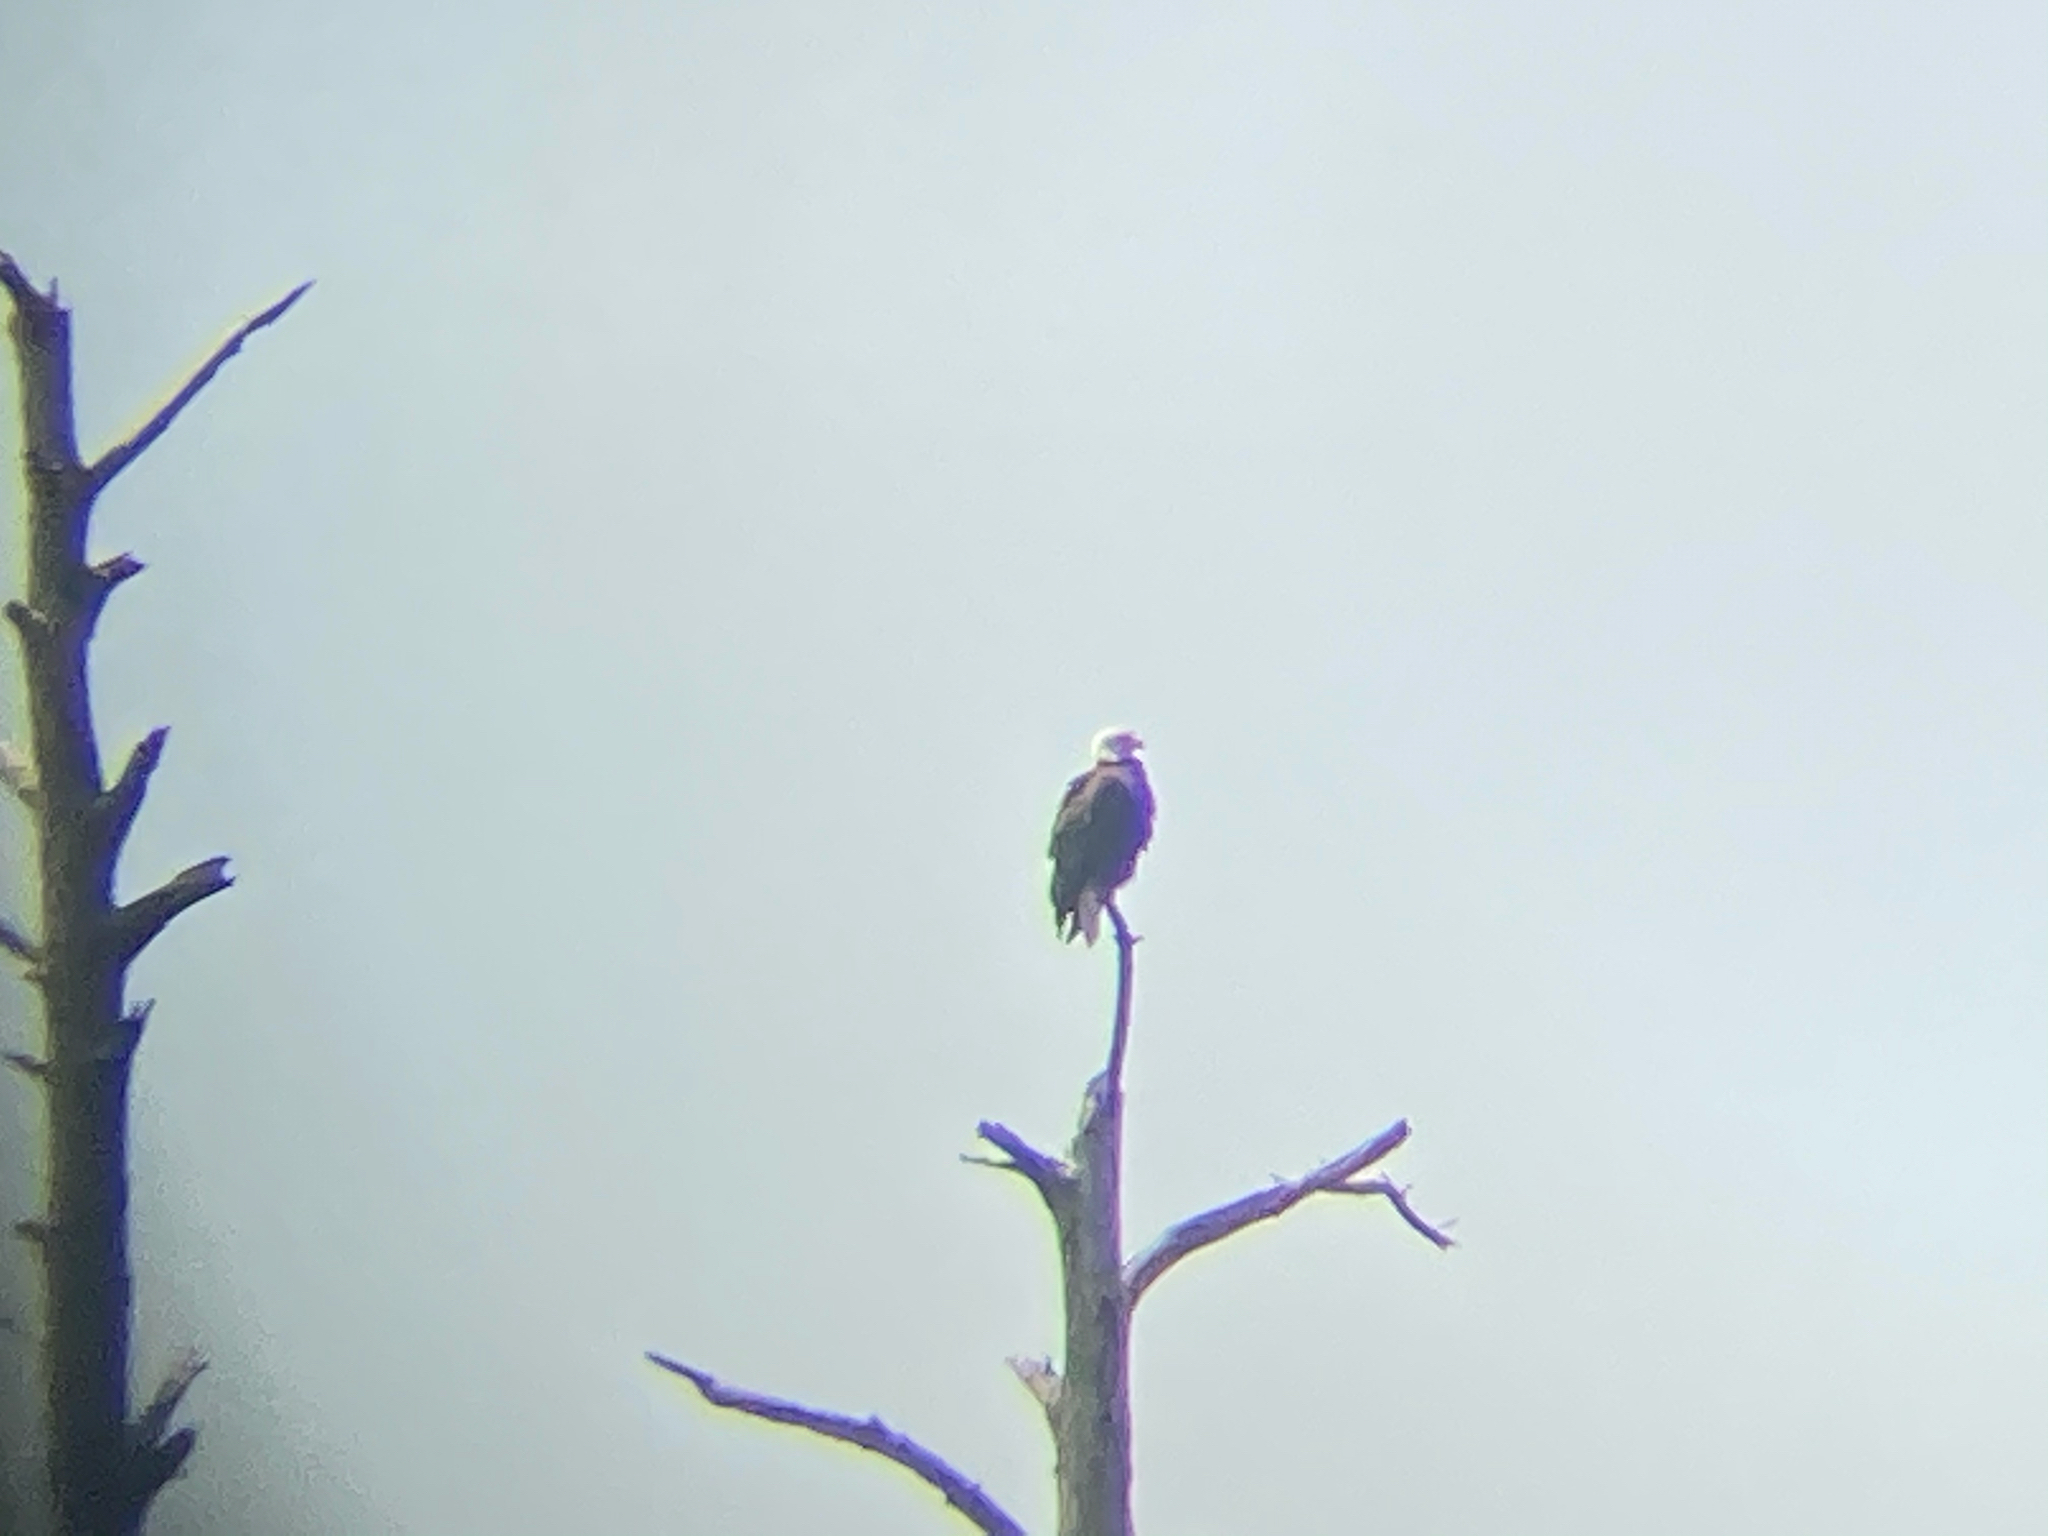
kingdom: Animalia
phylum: Chordata
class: Aves
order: Accipitriformes
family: Accipitridae
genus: Haliaeetus
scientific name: Haliaeetus leucocephalus
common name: Bald eagle
